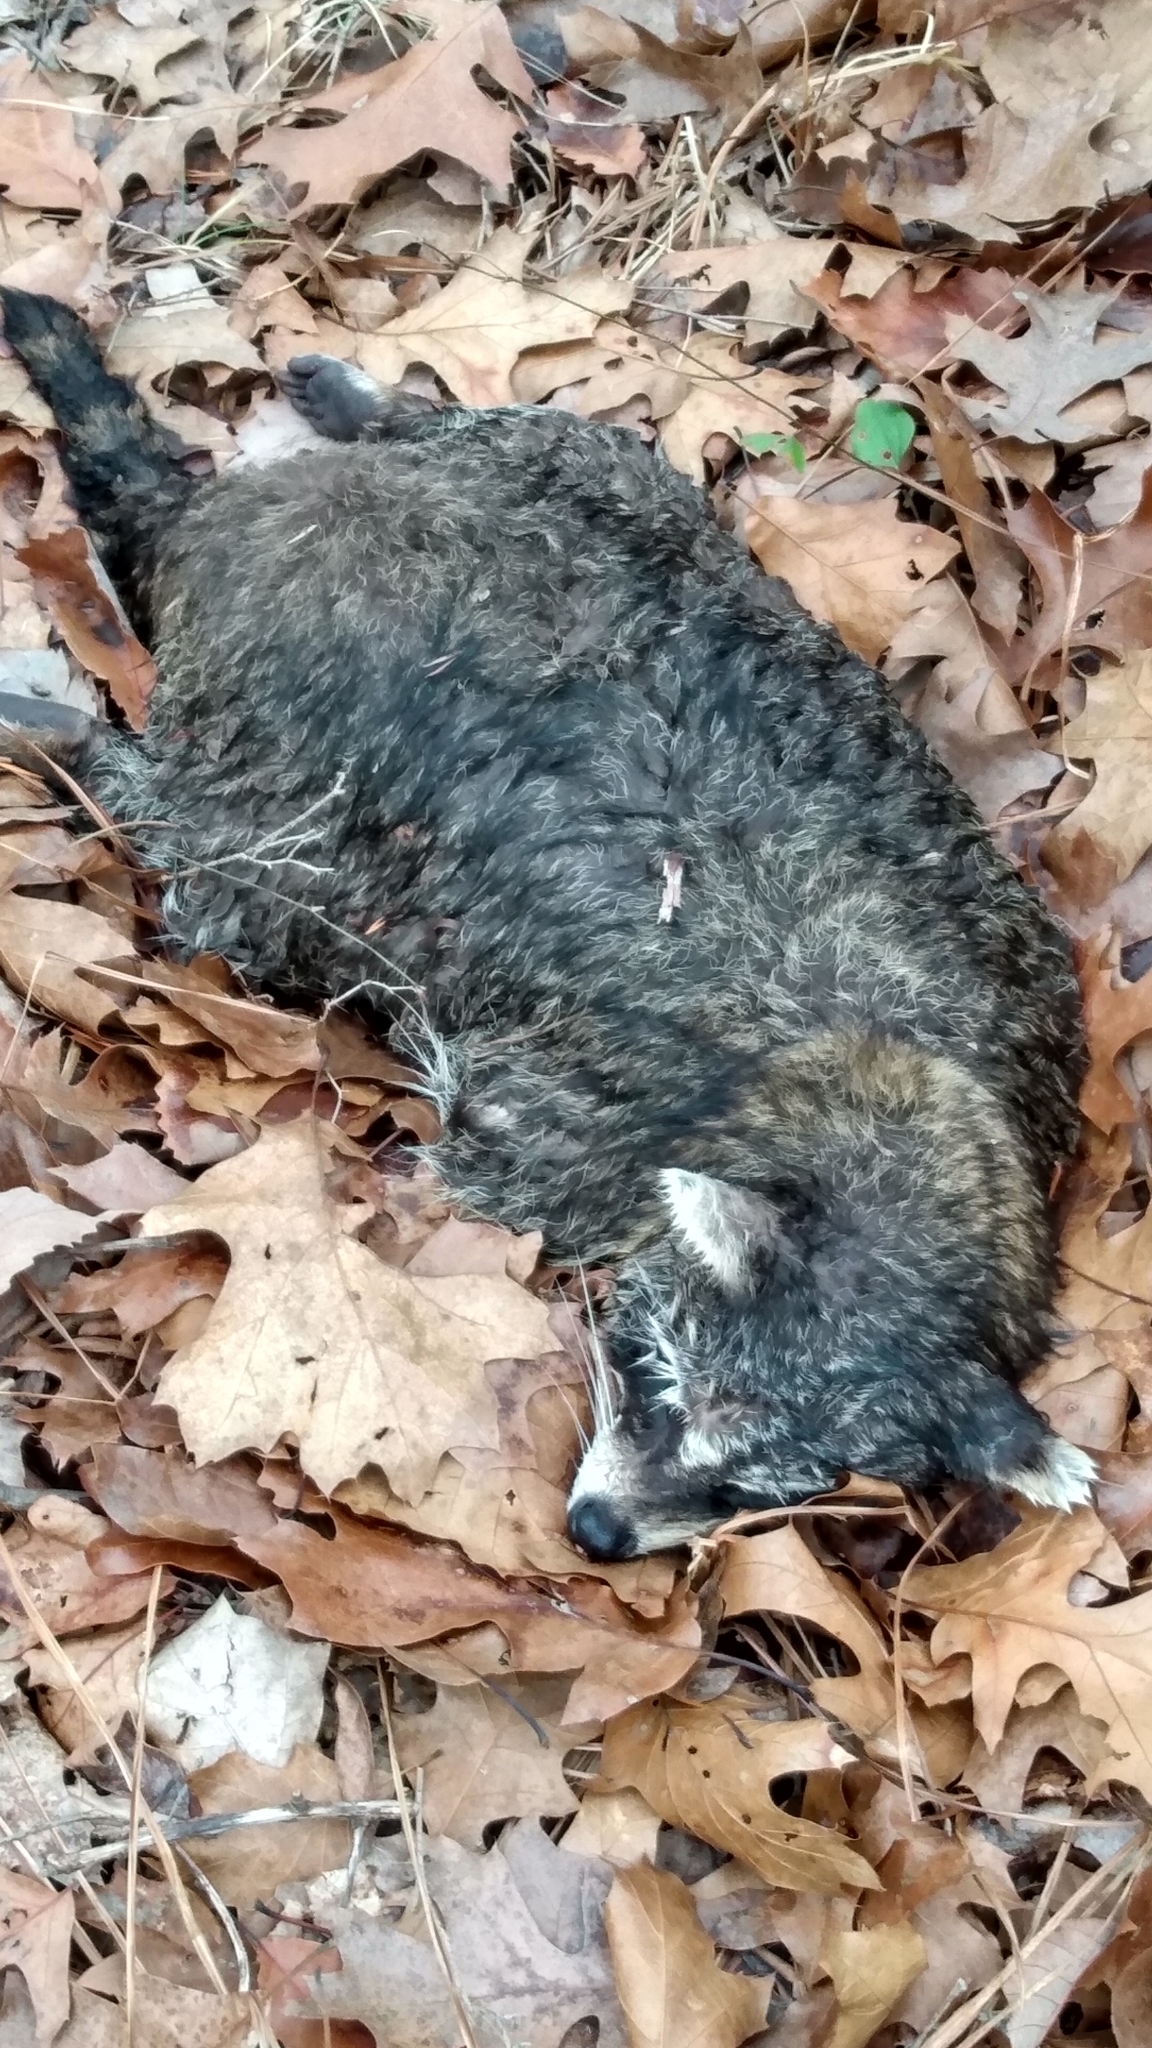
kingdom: Animalia
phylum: Chordata
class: Mammalia
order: Carnivora
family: Procyonidae
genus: Procyon
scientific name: Procyon lotor
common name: Raccoon
